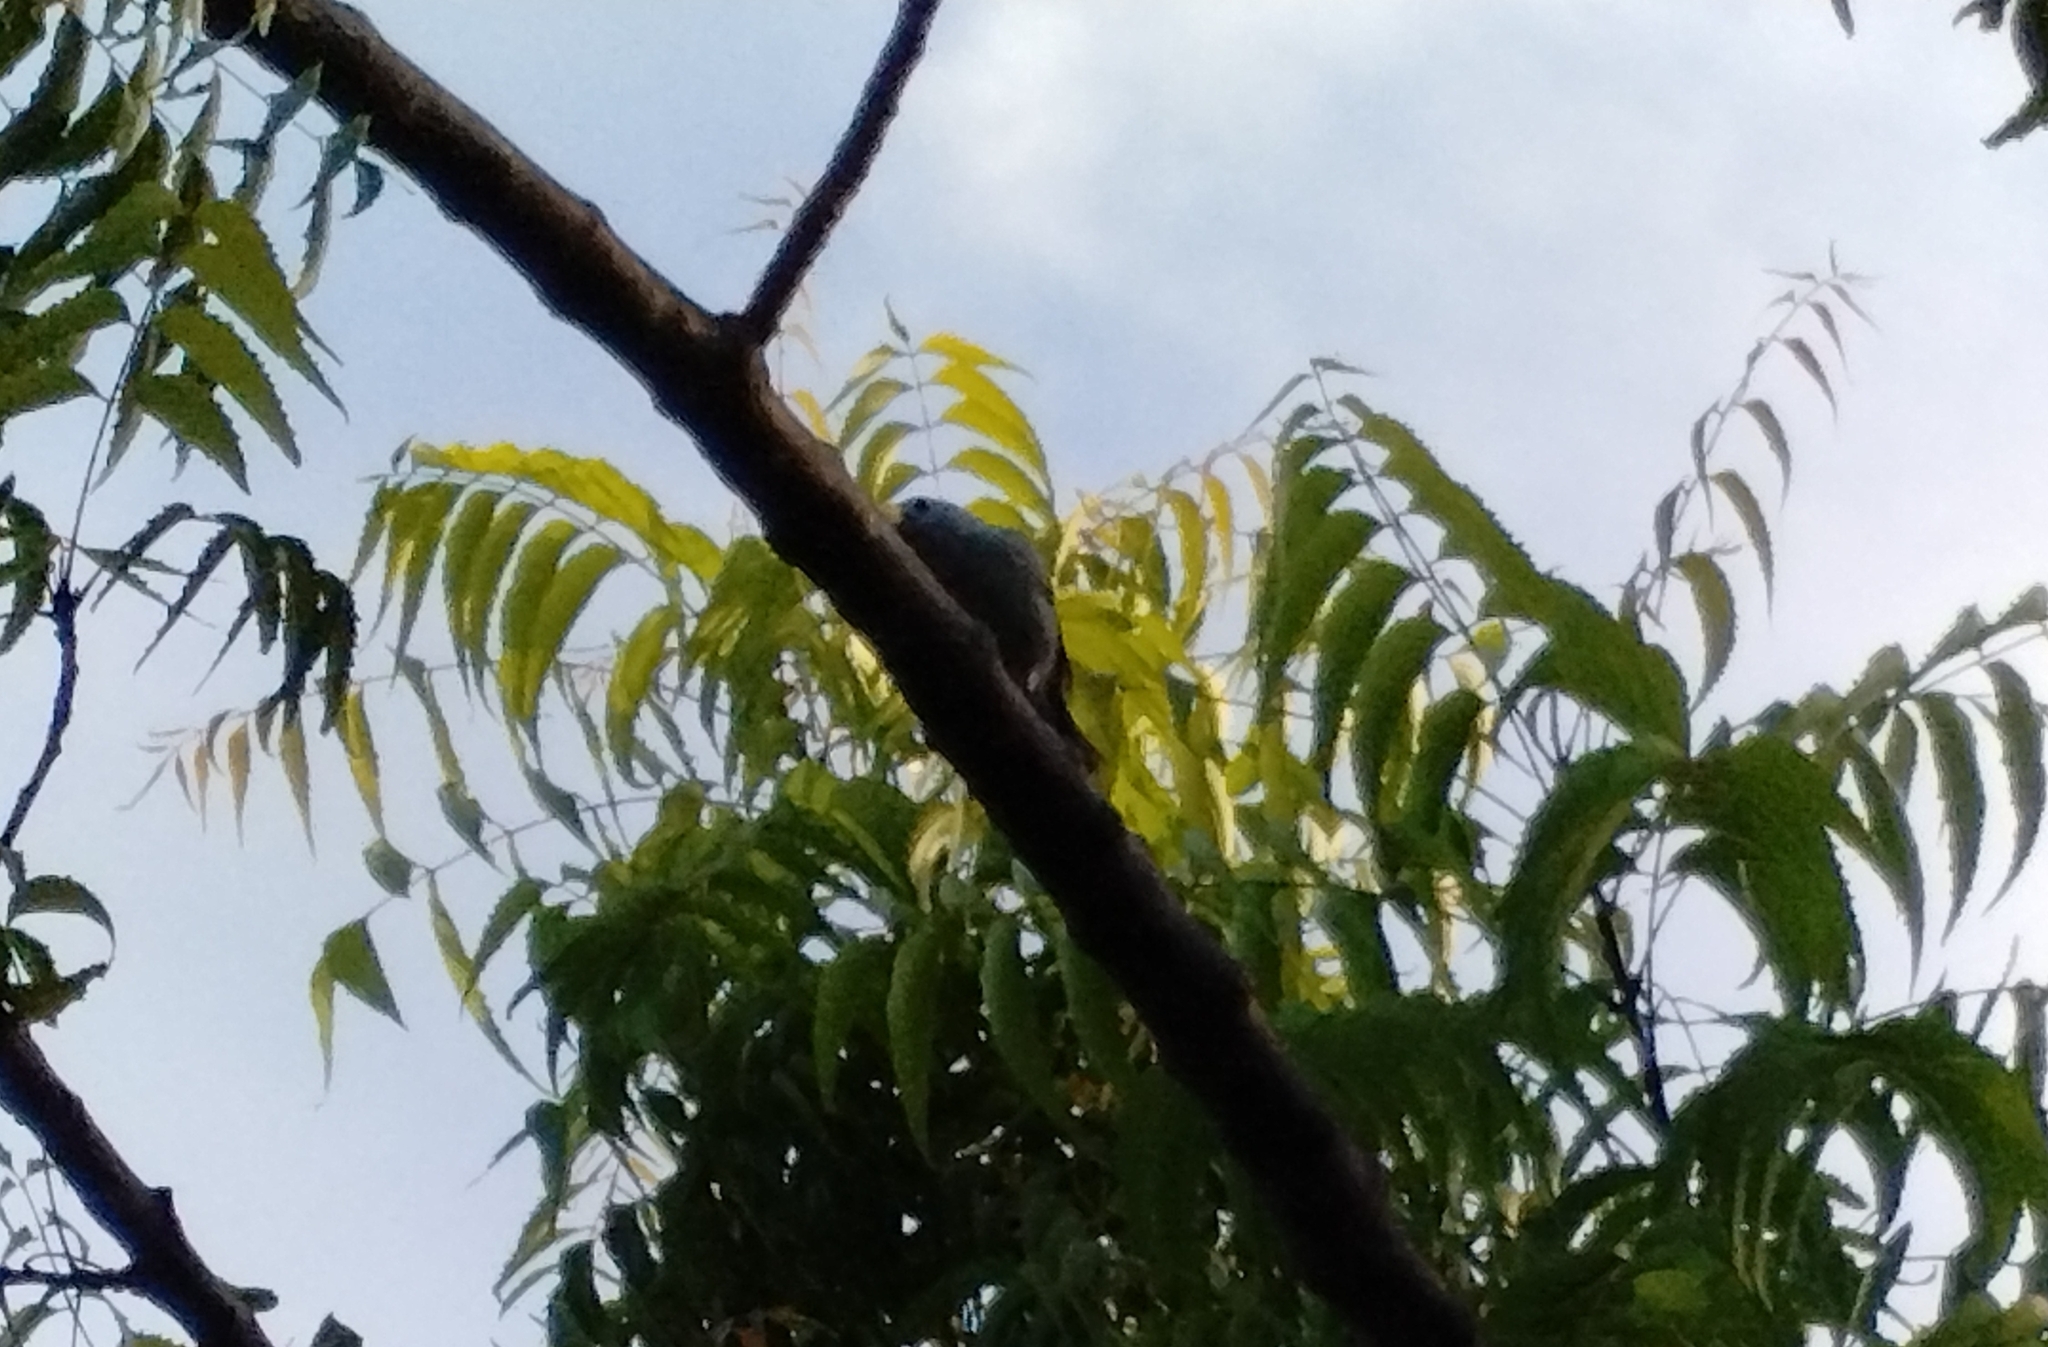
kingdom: Animalia
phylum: Chordata
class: Aves
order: Passeriformes
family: Thraupidae
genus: Thraupis
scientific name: Thraupis sayaca
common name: Sayaca tanager
